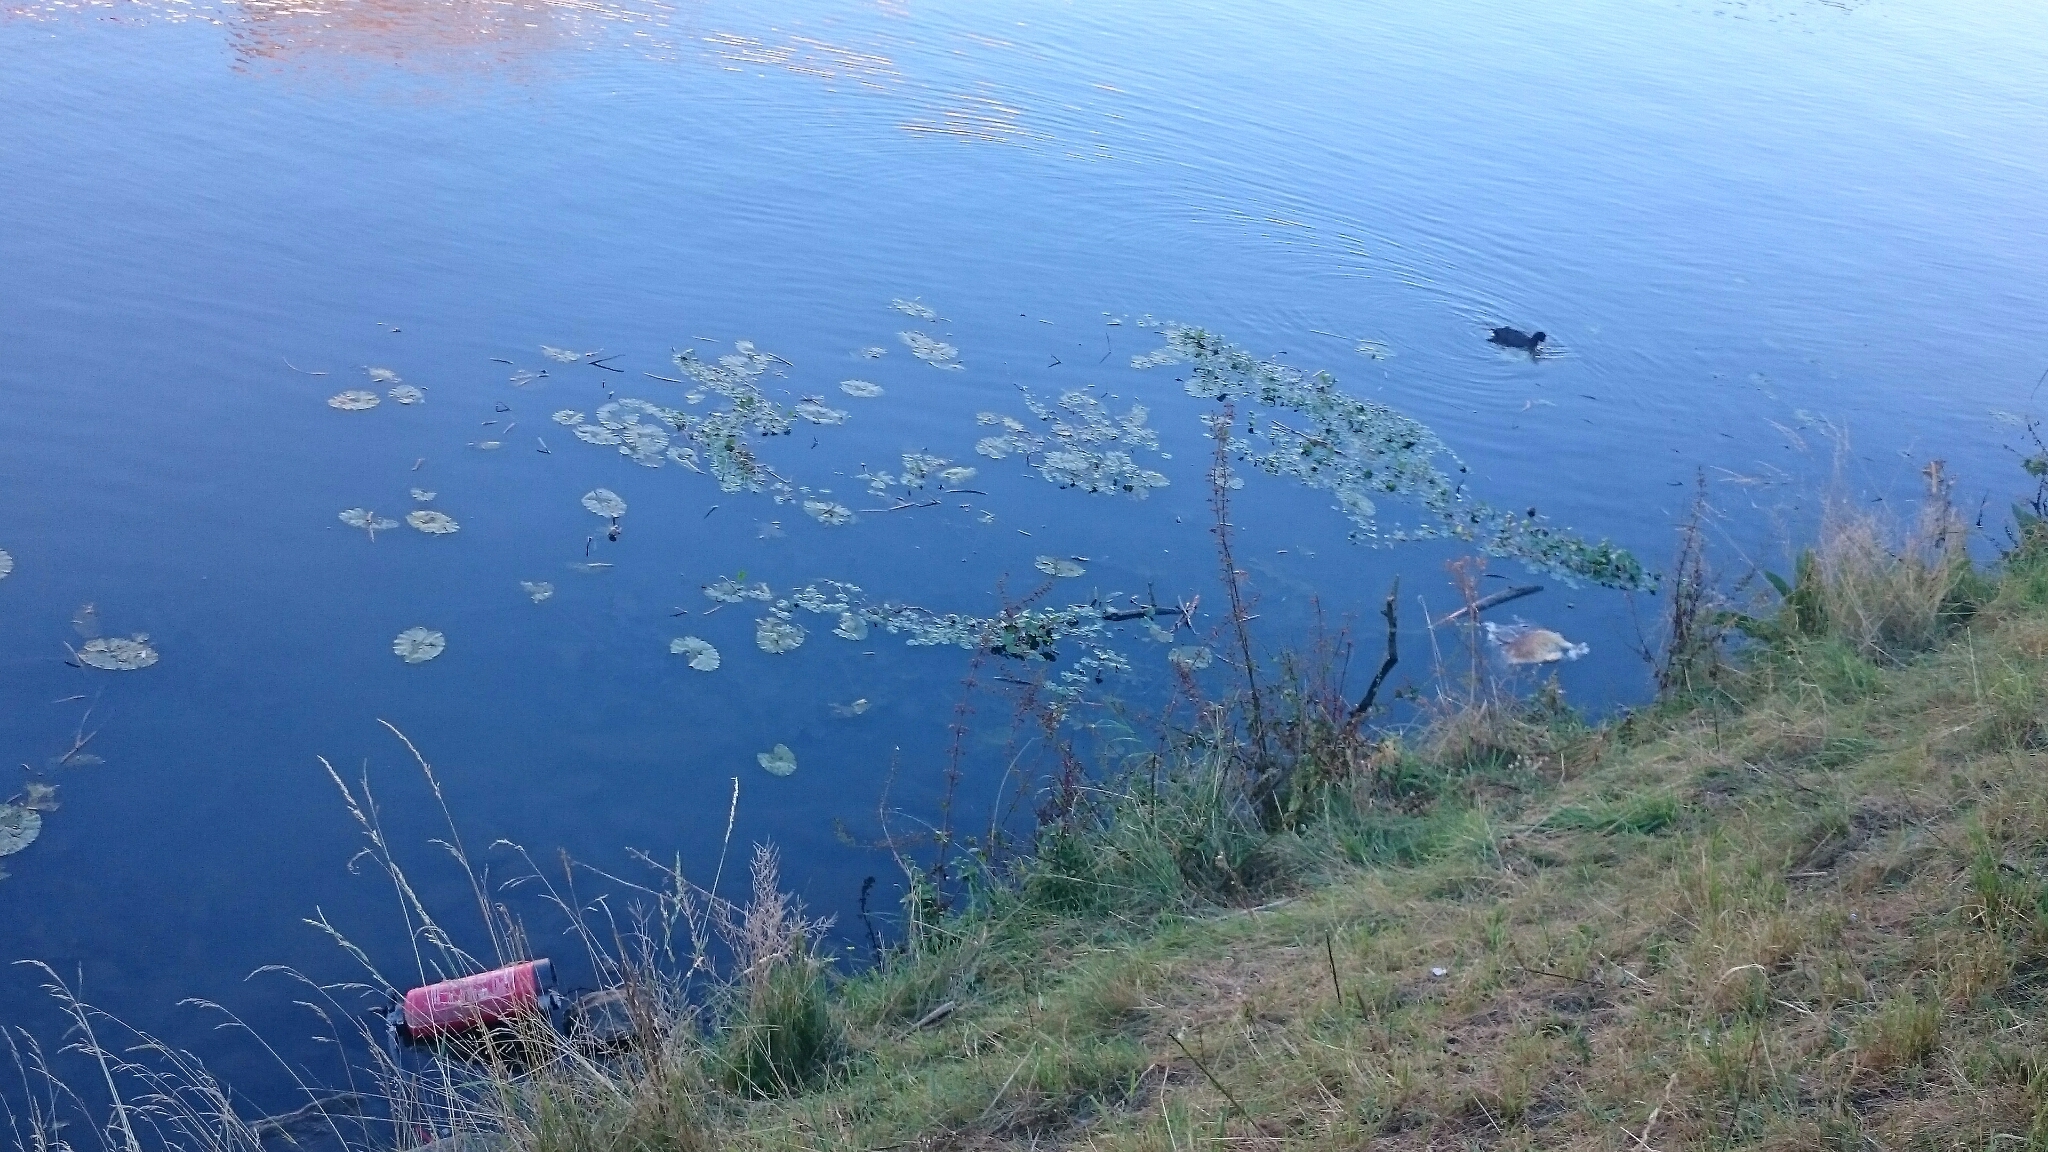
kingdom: Plantae
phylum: Tracheophyta
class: Magnoliopsida
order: Apiales
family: Araliaceae
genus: Hydrocotyle
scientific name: Hydrocotyle ranunculoides
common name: Floating pennywort
